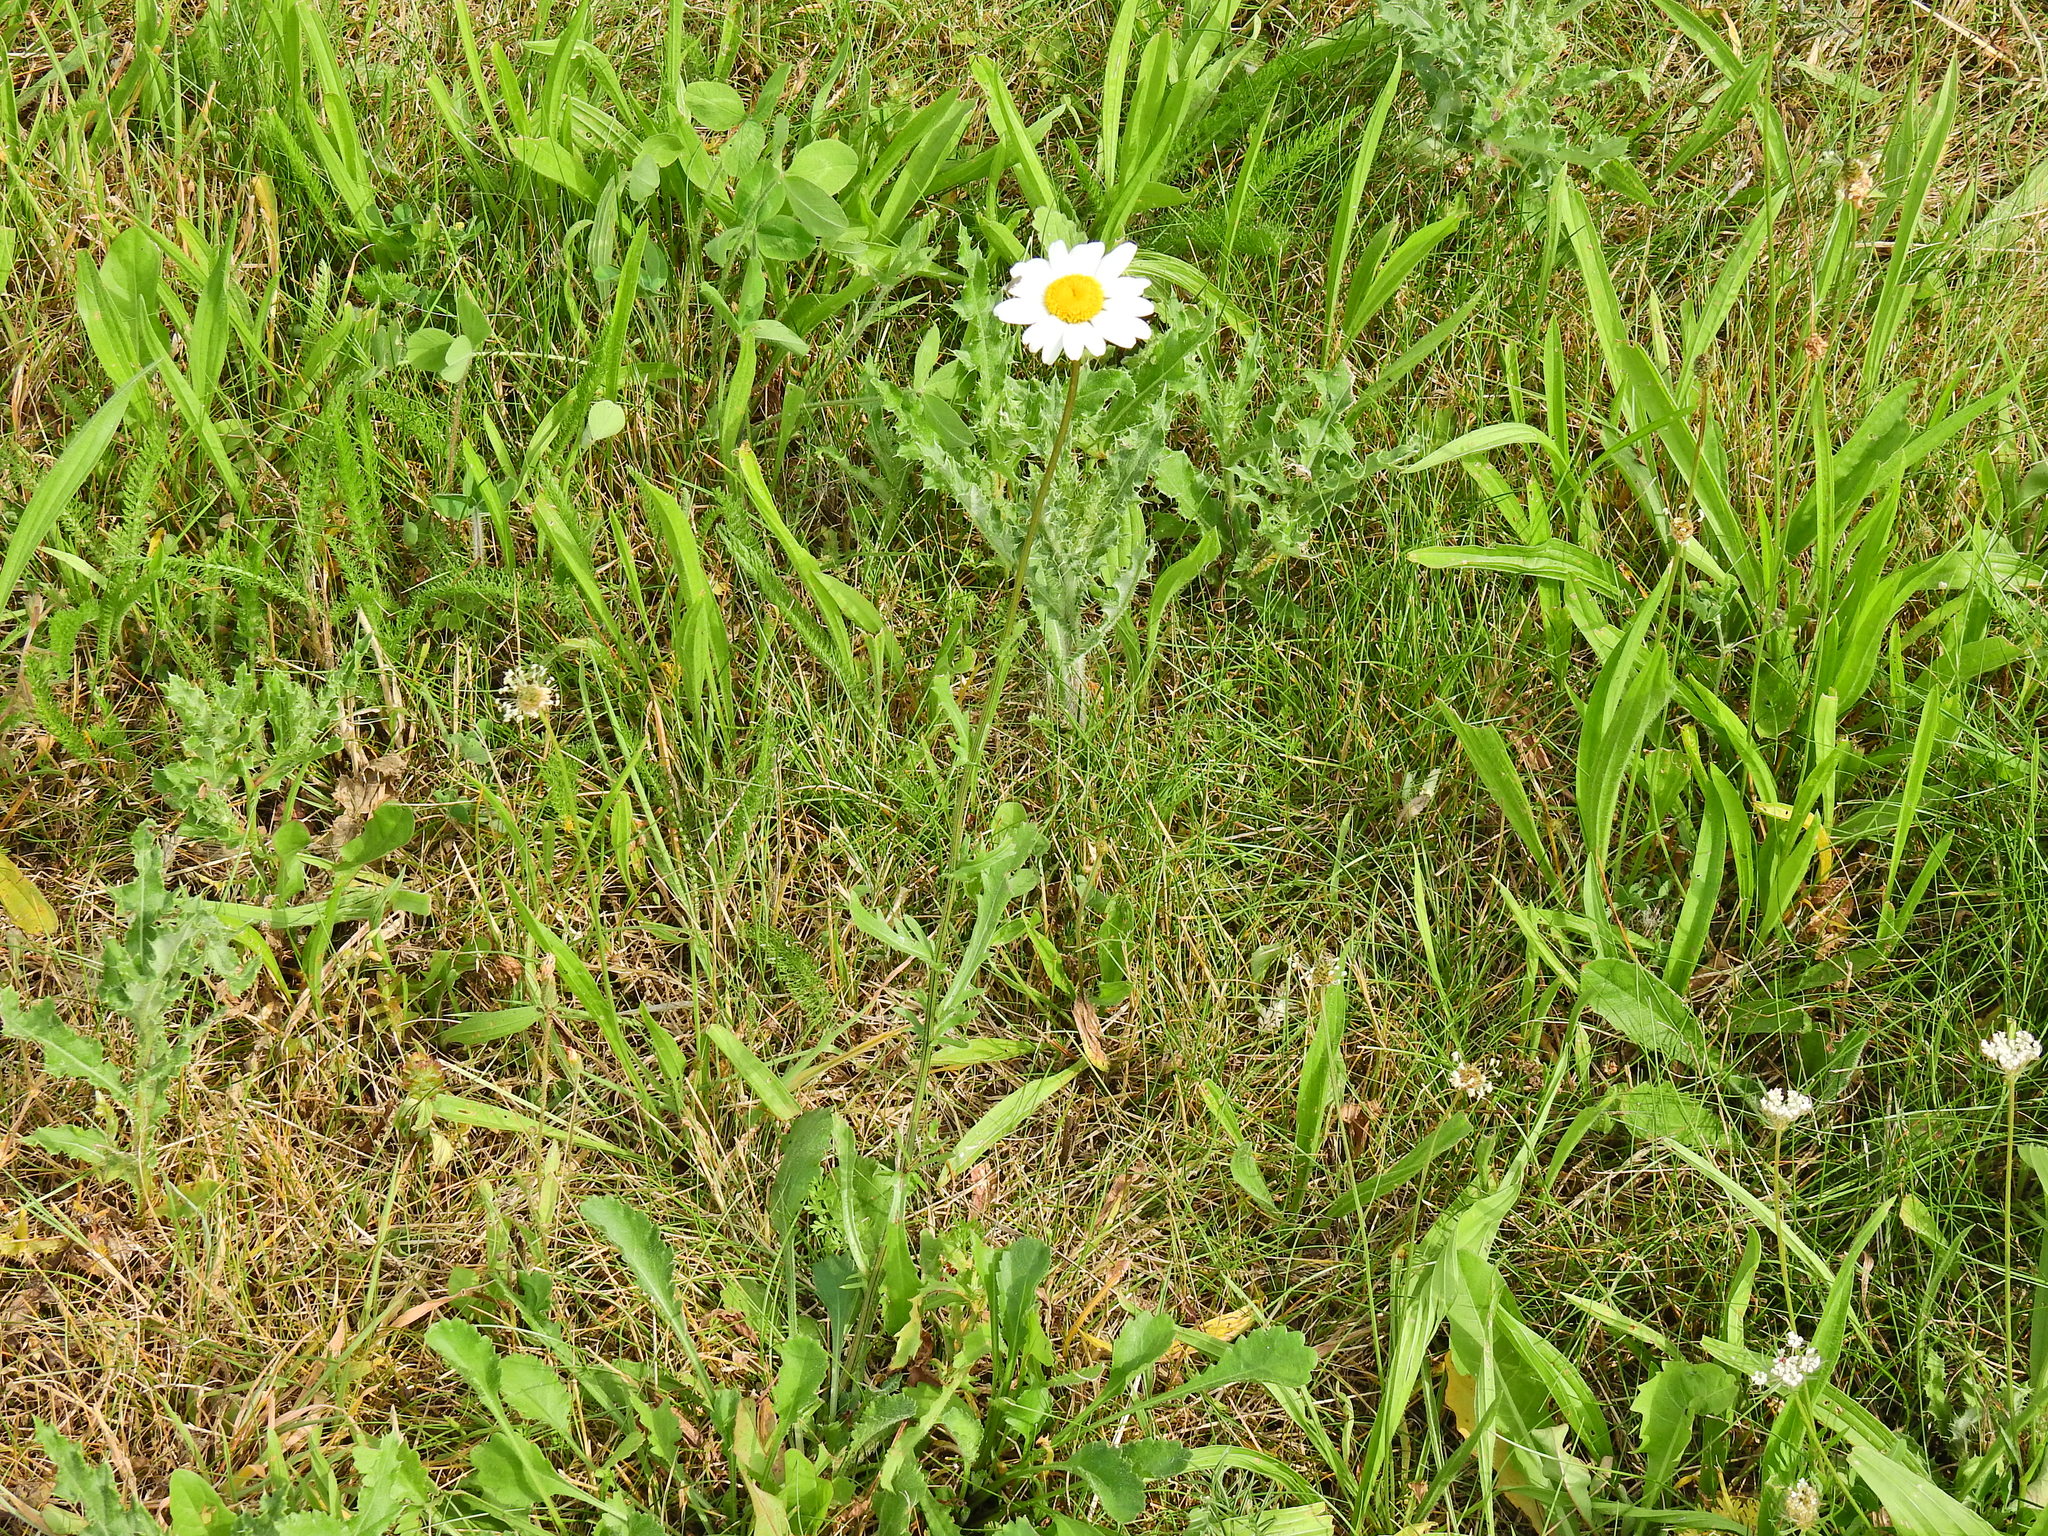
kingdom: Plantae
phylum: Tracheophyta
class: Magnoliopsida
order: Asterales
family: Asteraceae
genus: Leucanthemum
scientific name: Leucanthemum vulgare
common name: Oxeye daisy
